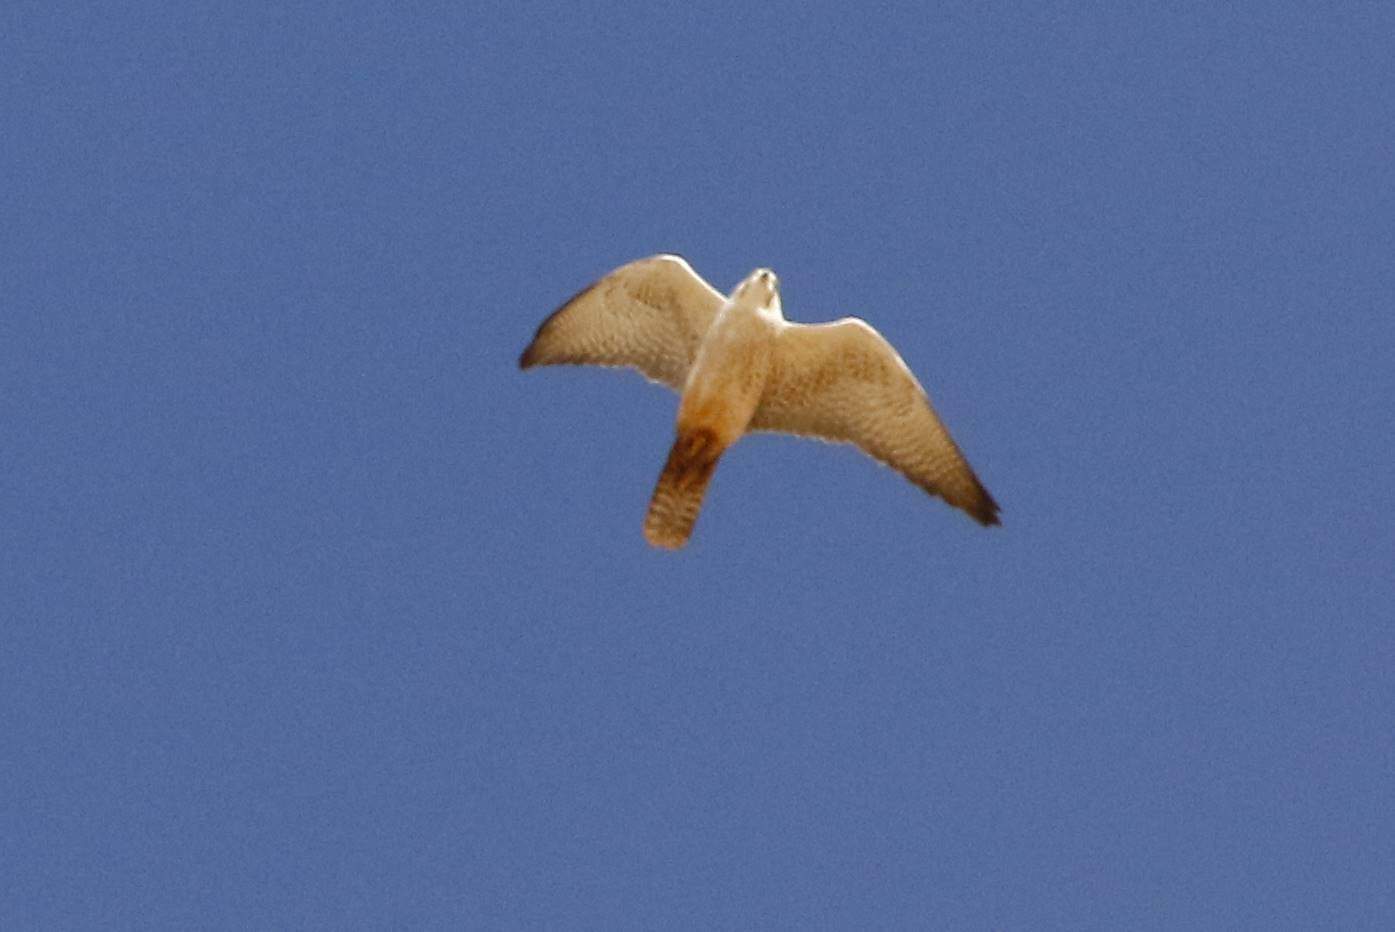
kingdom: Animalia
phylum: Chordata
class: Aves
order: Falconiformes
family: Falconidae
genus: Falco
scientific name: Falco biarmicus
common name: Lanner falcon
